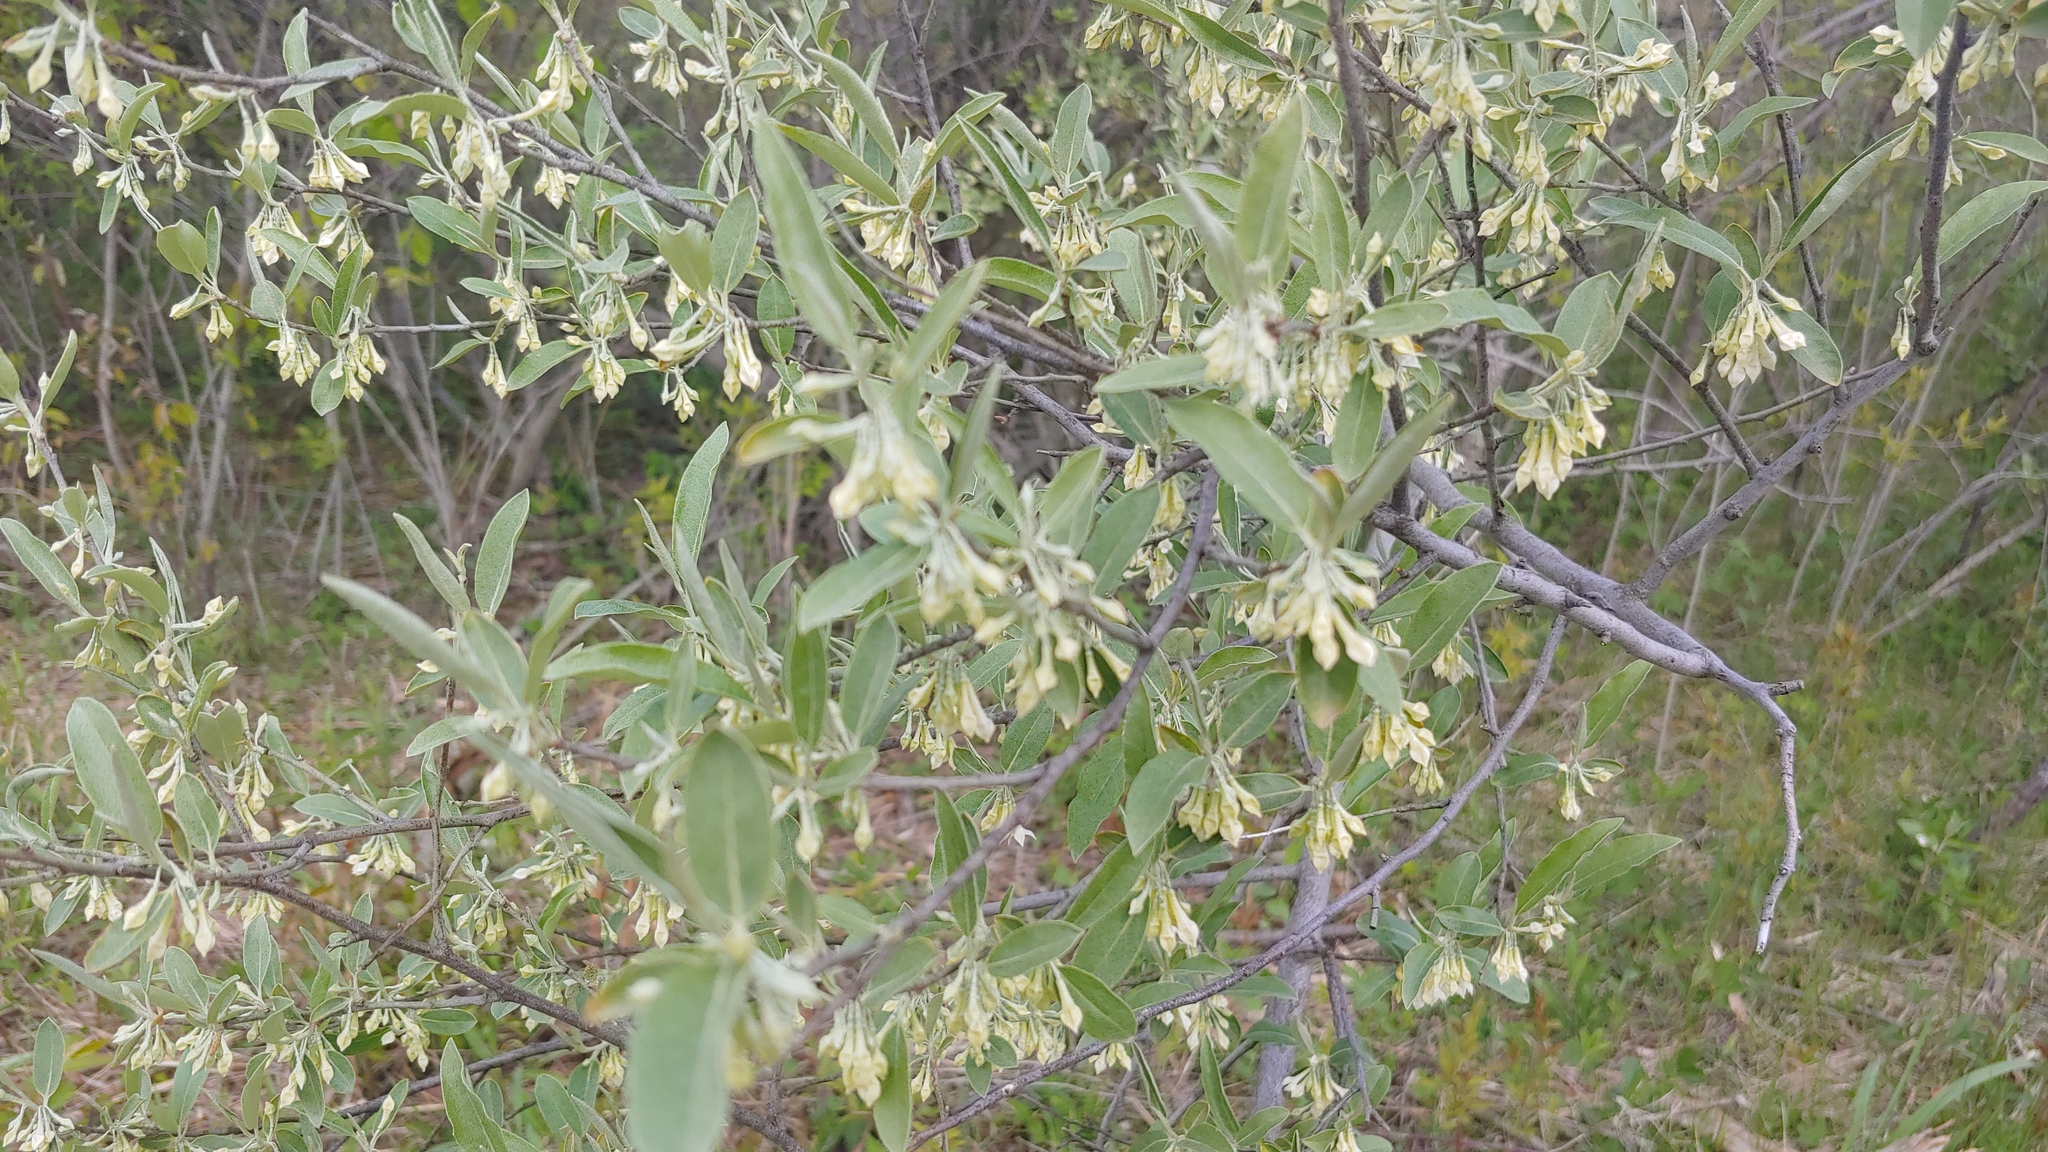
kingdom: Plantae
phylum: Tracheophyta
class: Magnoliopsida
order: Rosales
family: Elaeagnaceae
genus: Elaeagnus
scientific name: Elaeagnus umbellata
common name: Autumn olive
